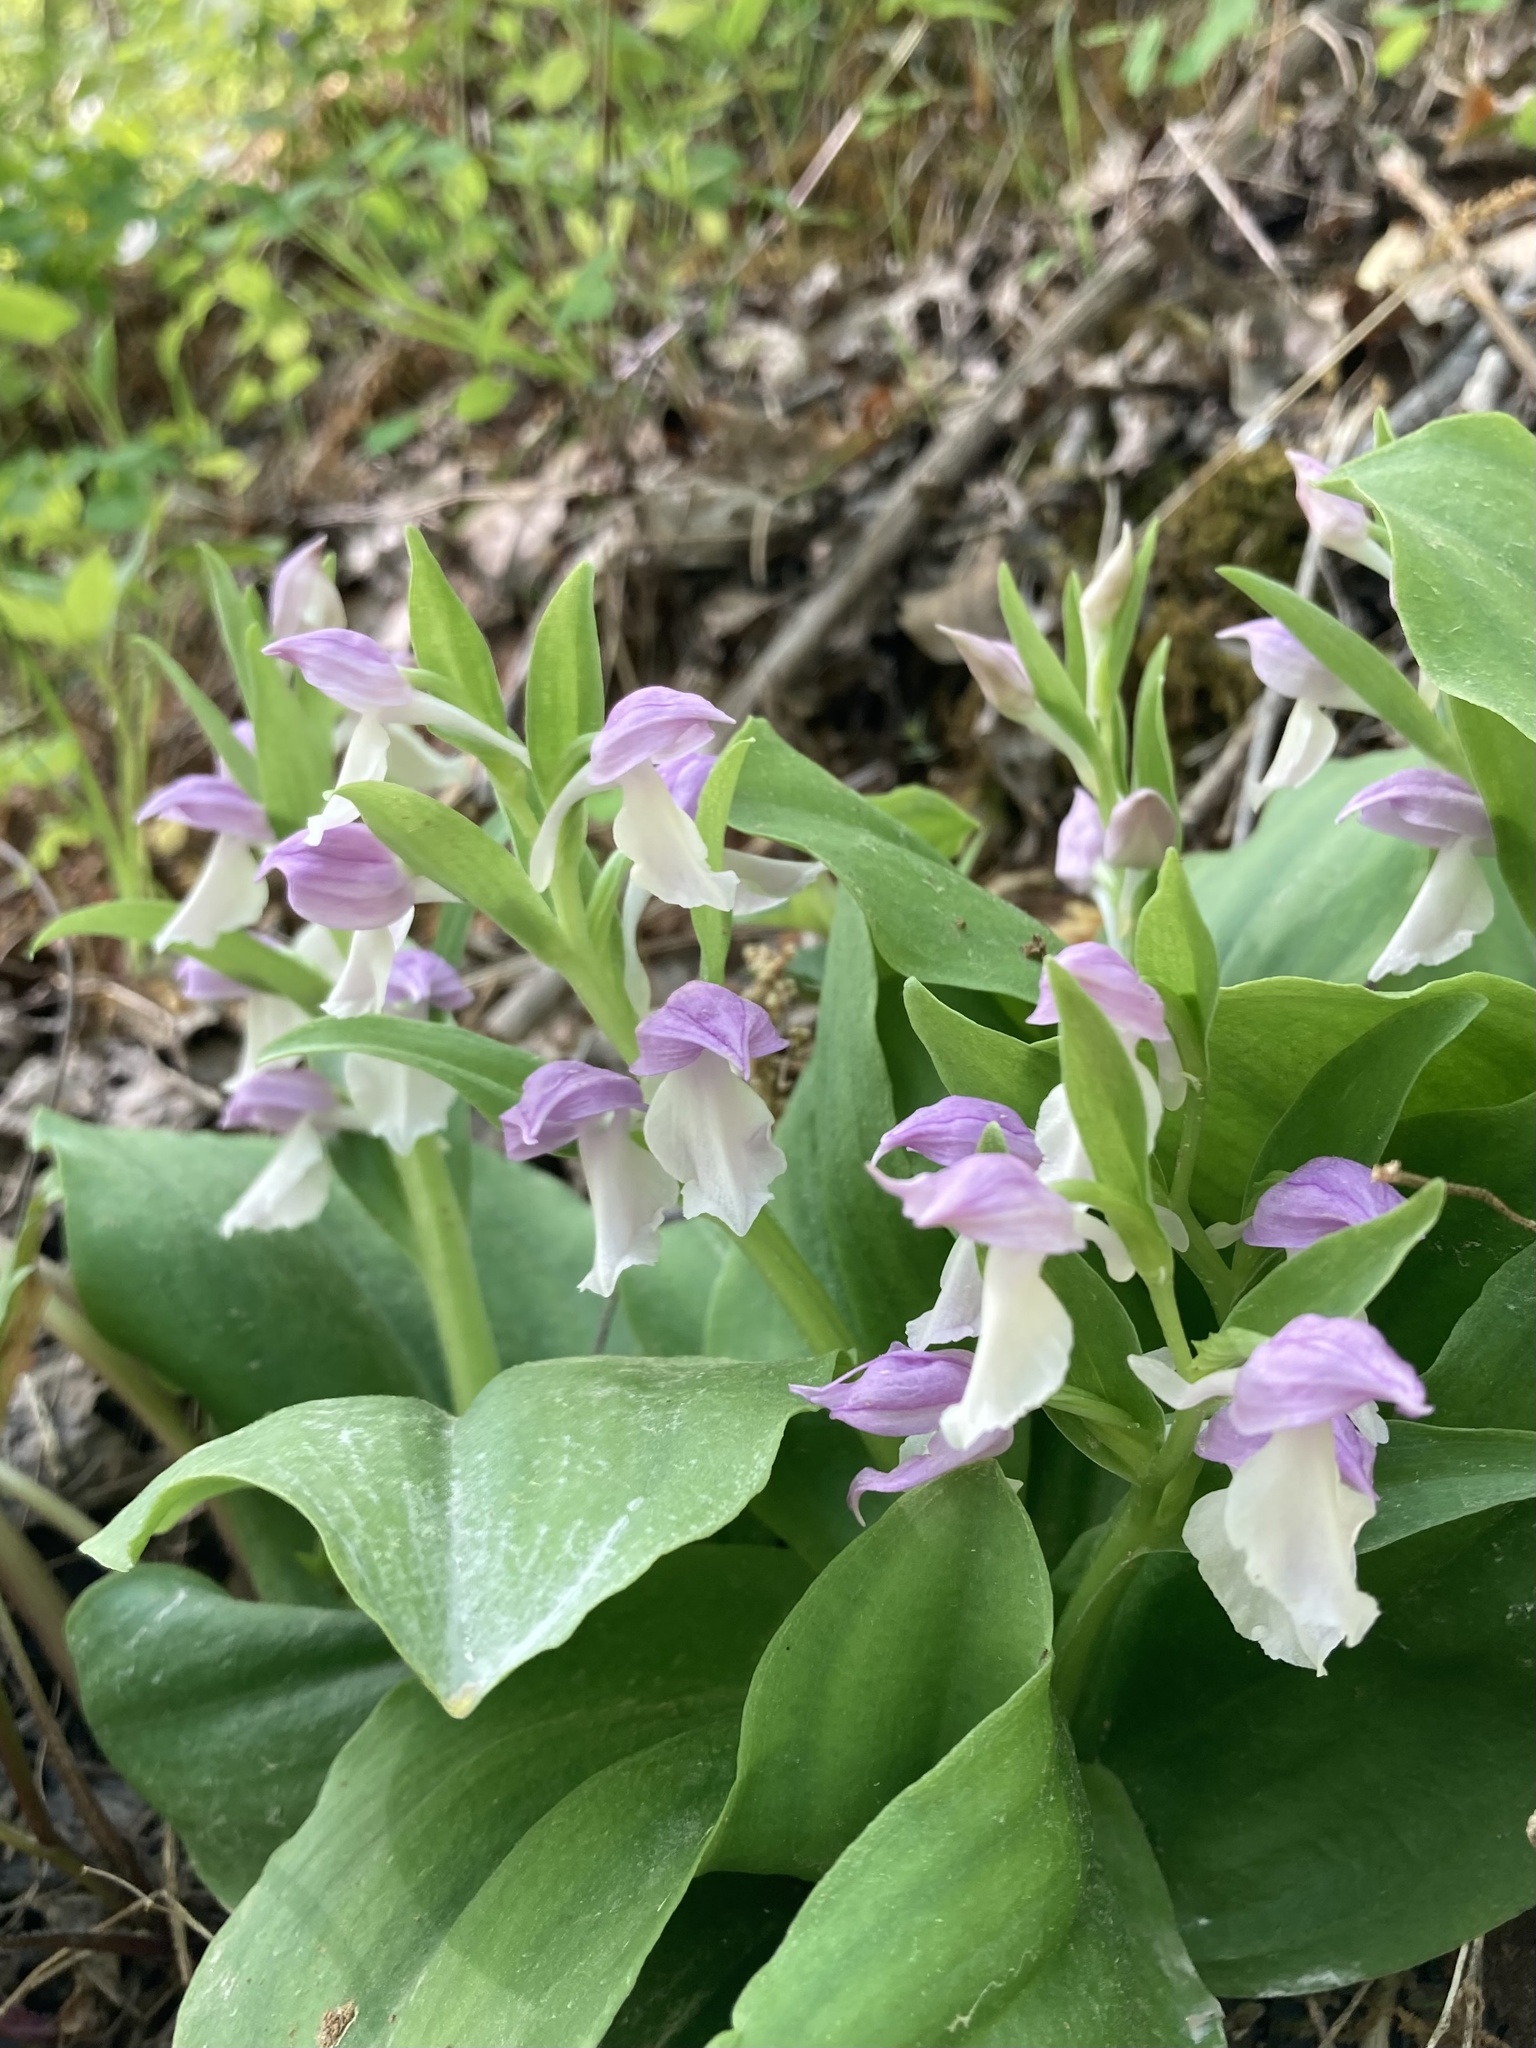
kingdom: Plantae
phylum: Tracheophyta
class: Liliopsida
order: Asparagales
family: Orchidaceae
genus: Galearis
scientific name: Galearis spectabilis
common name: Purple-hooded orchis
